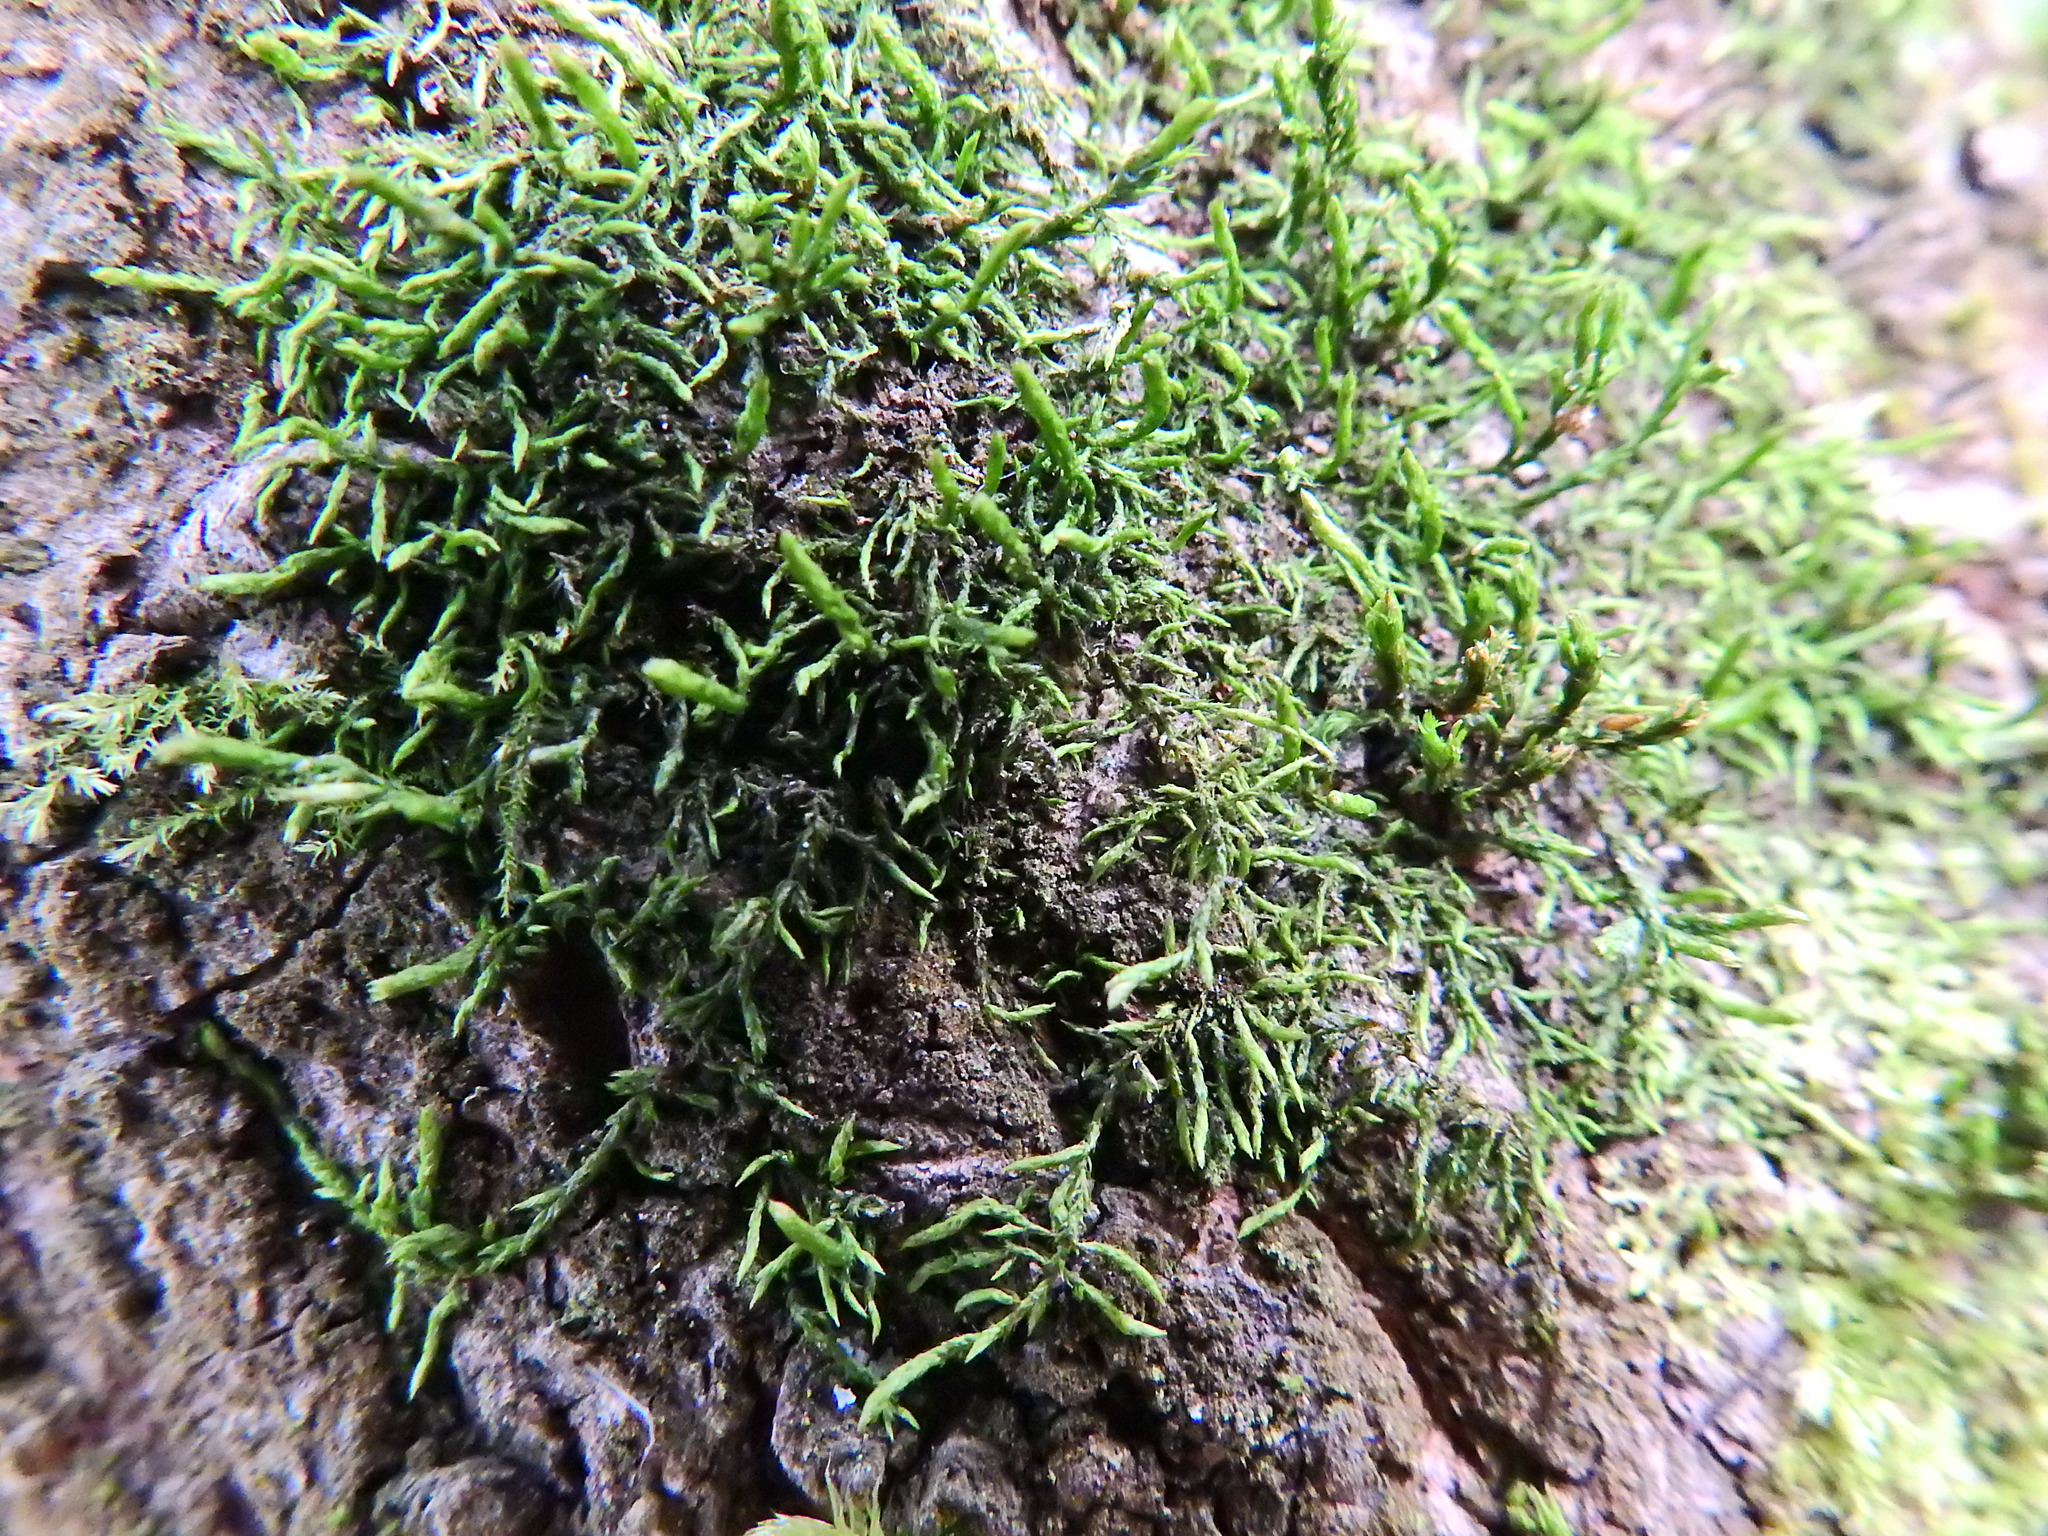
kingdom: Plantae
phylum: Bryophyta
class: Bryopsida
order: Hypnales
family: Cryphaeaceae
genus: Cryphaea
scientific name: Cryphaea heteromalla
